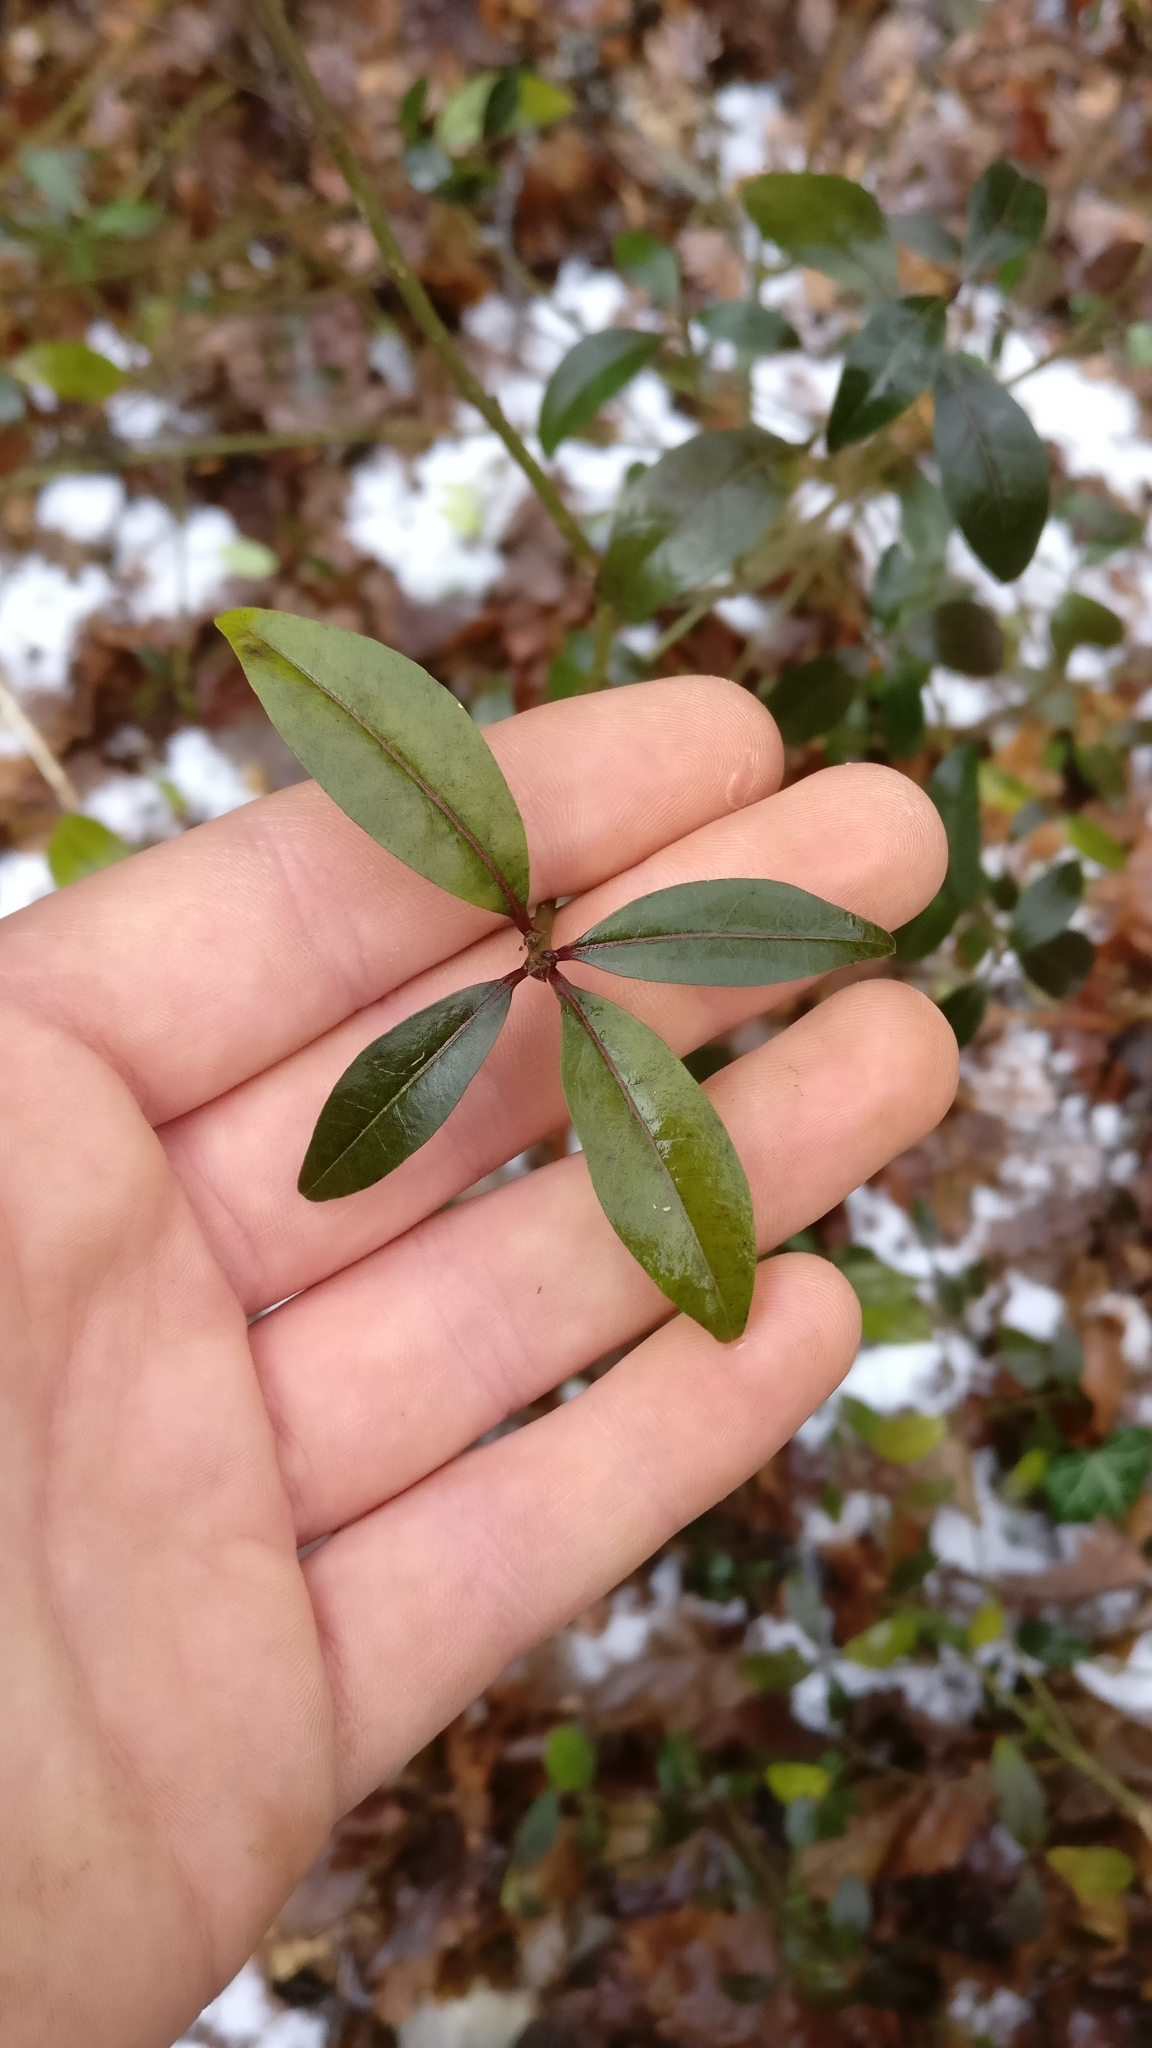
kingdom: Plantae
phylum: Tracheophyta
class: Magnoliopsida
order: Lamiales
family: Oleaceae
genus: Ligustrum
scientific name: Ligustrum vulgare
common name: Wild privet
